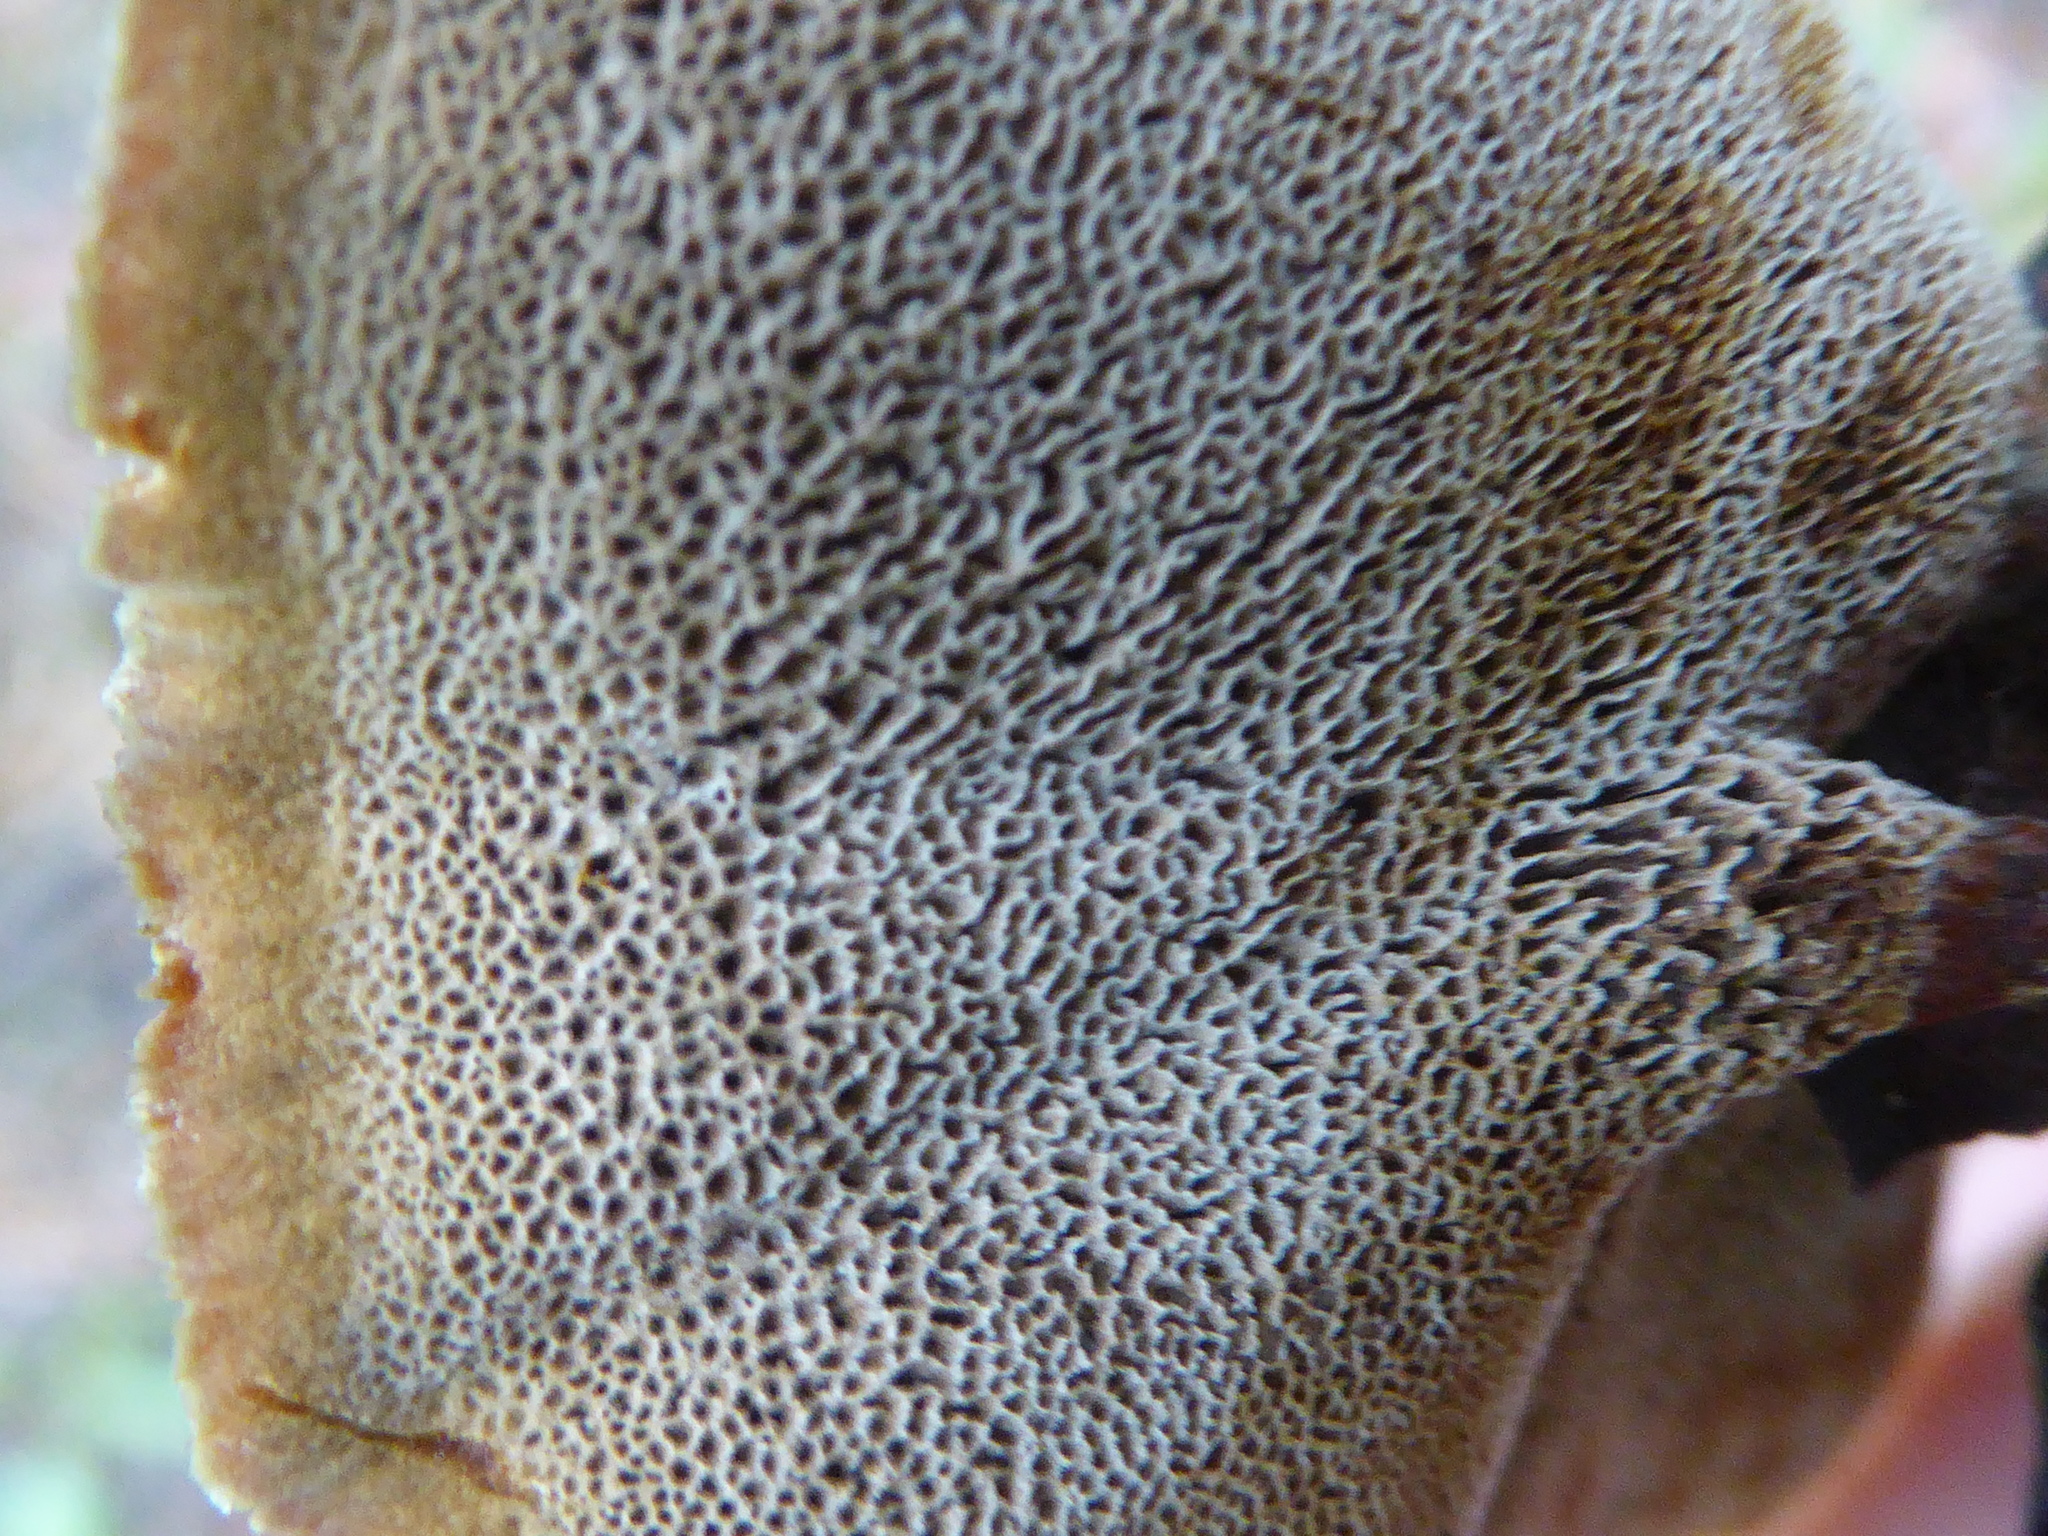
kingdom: Fungi
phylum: Basidiomycota
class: Agaricomycetes
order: Hymenochaetales
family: Hymenochaetaceae
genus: Coltricia
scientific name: Coltricia perennis
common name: Tiger's eye
